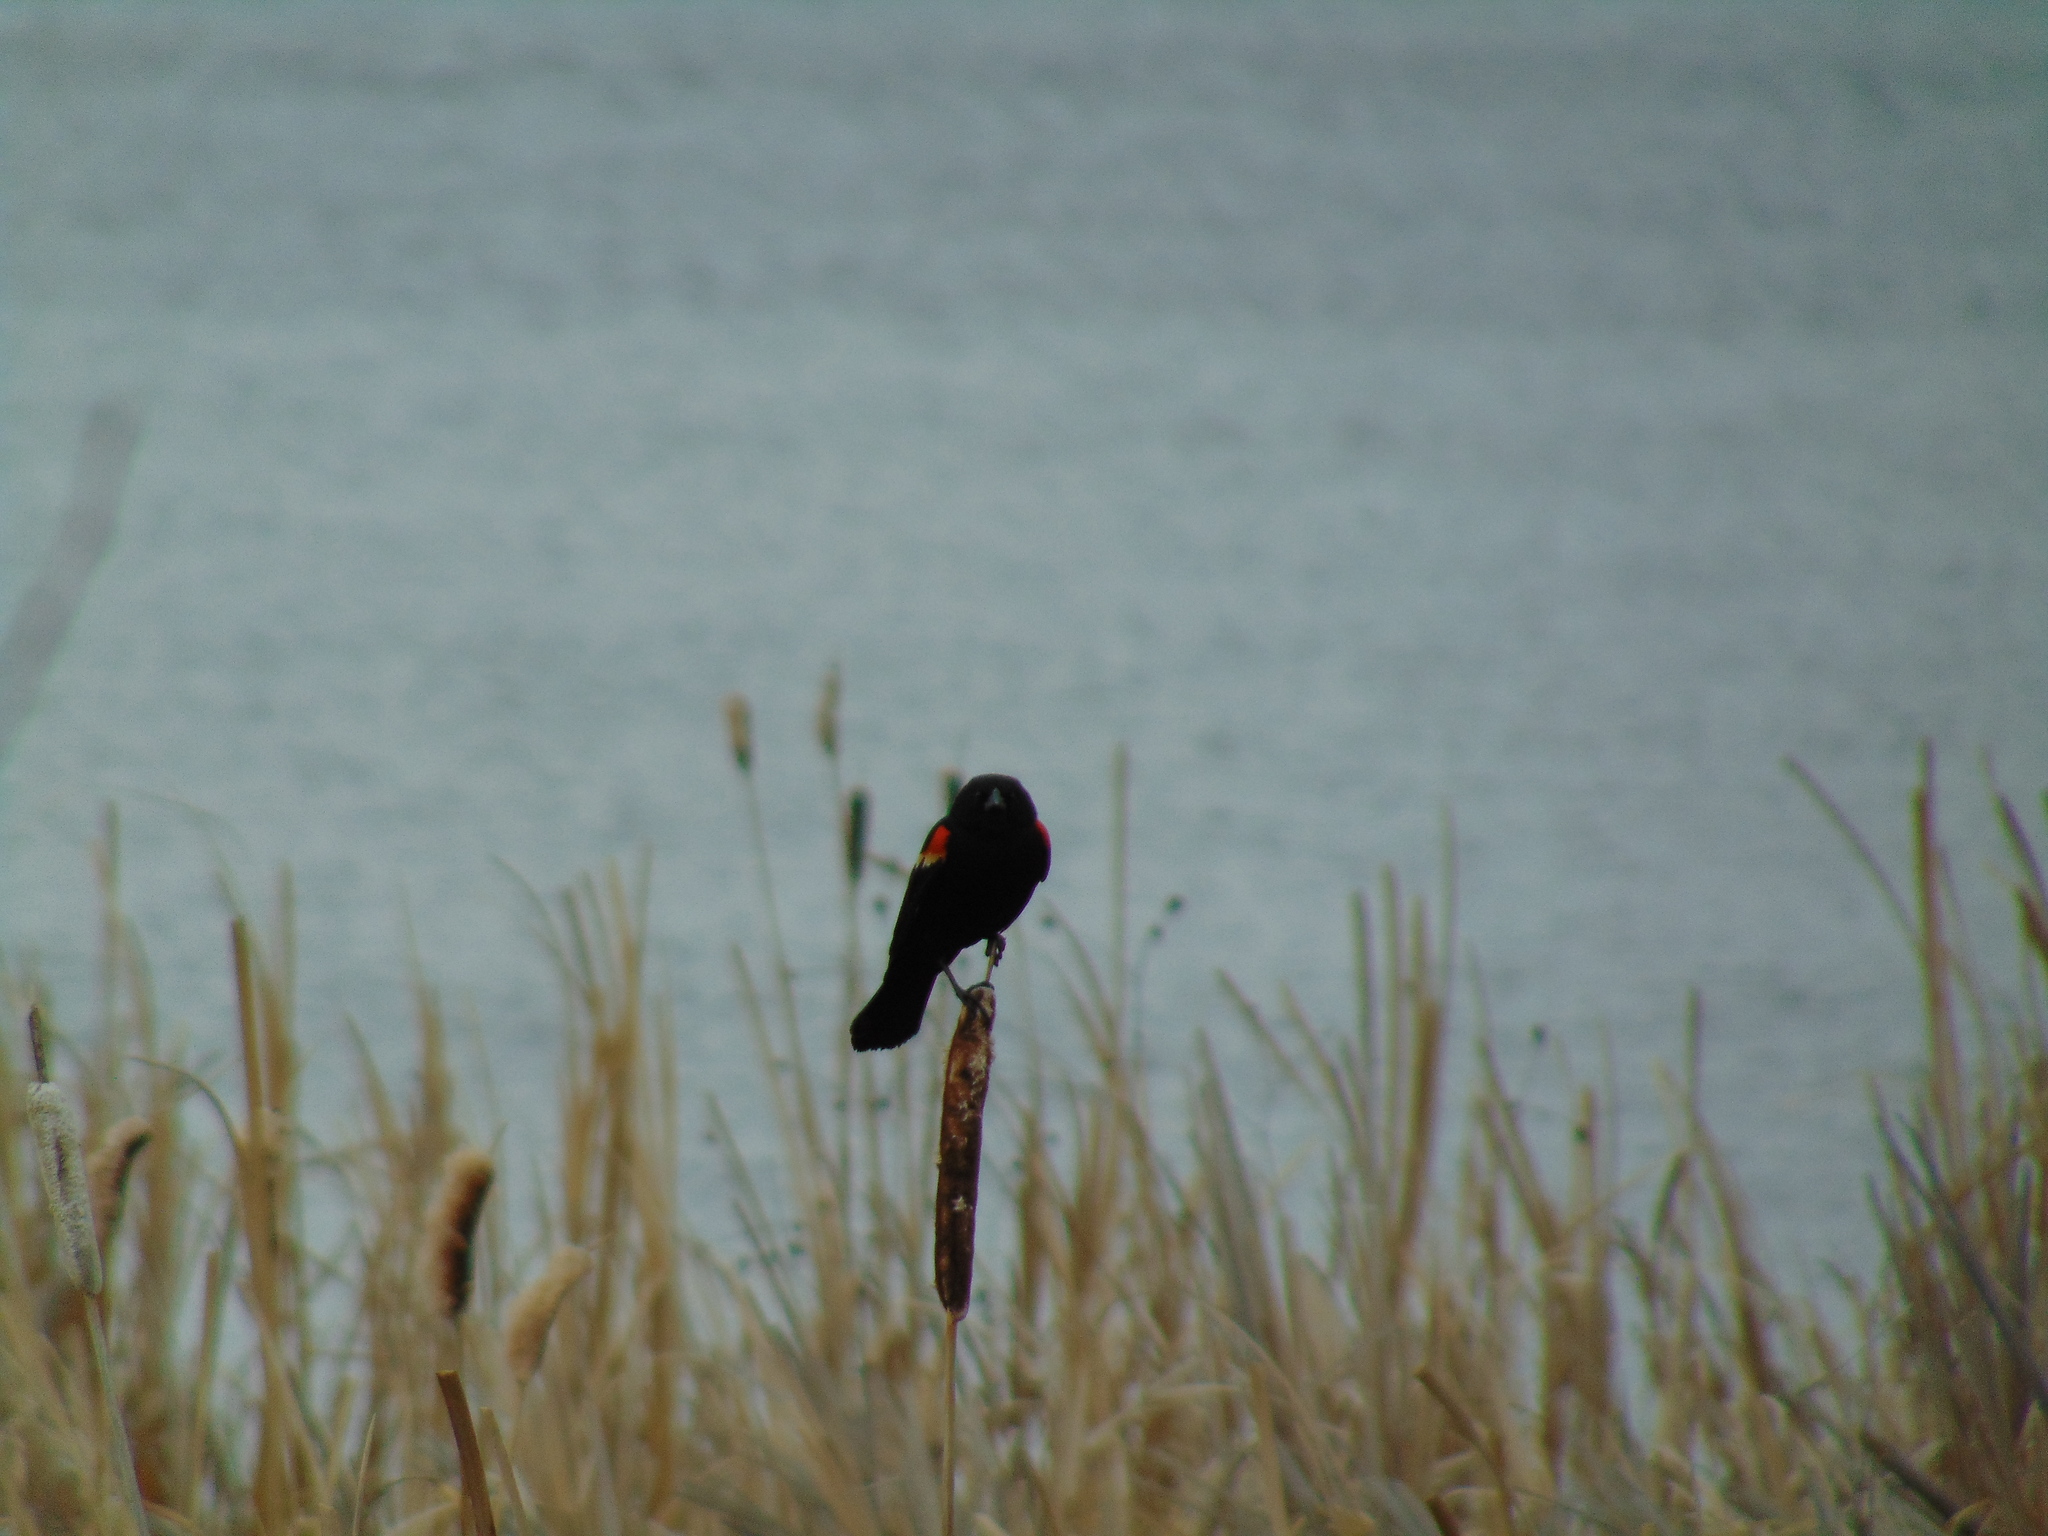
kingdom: Animalia
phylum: Chordata
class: Aves
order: Passeriformes
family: Icteridae
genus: Agelaius
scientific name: Agelaius phoeniceus
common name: Red-winged blackbird
